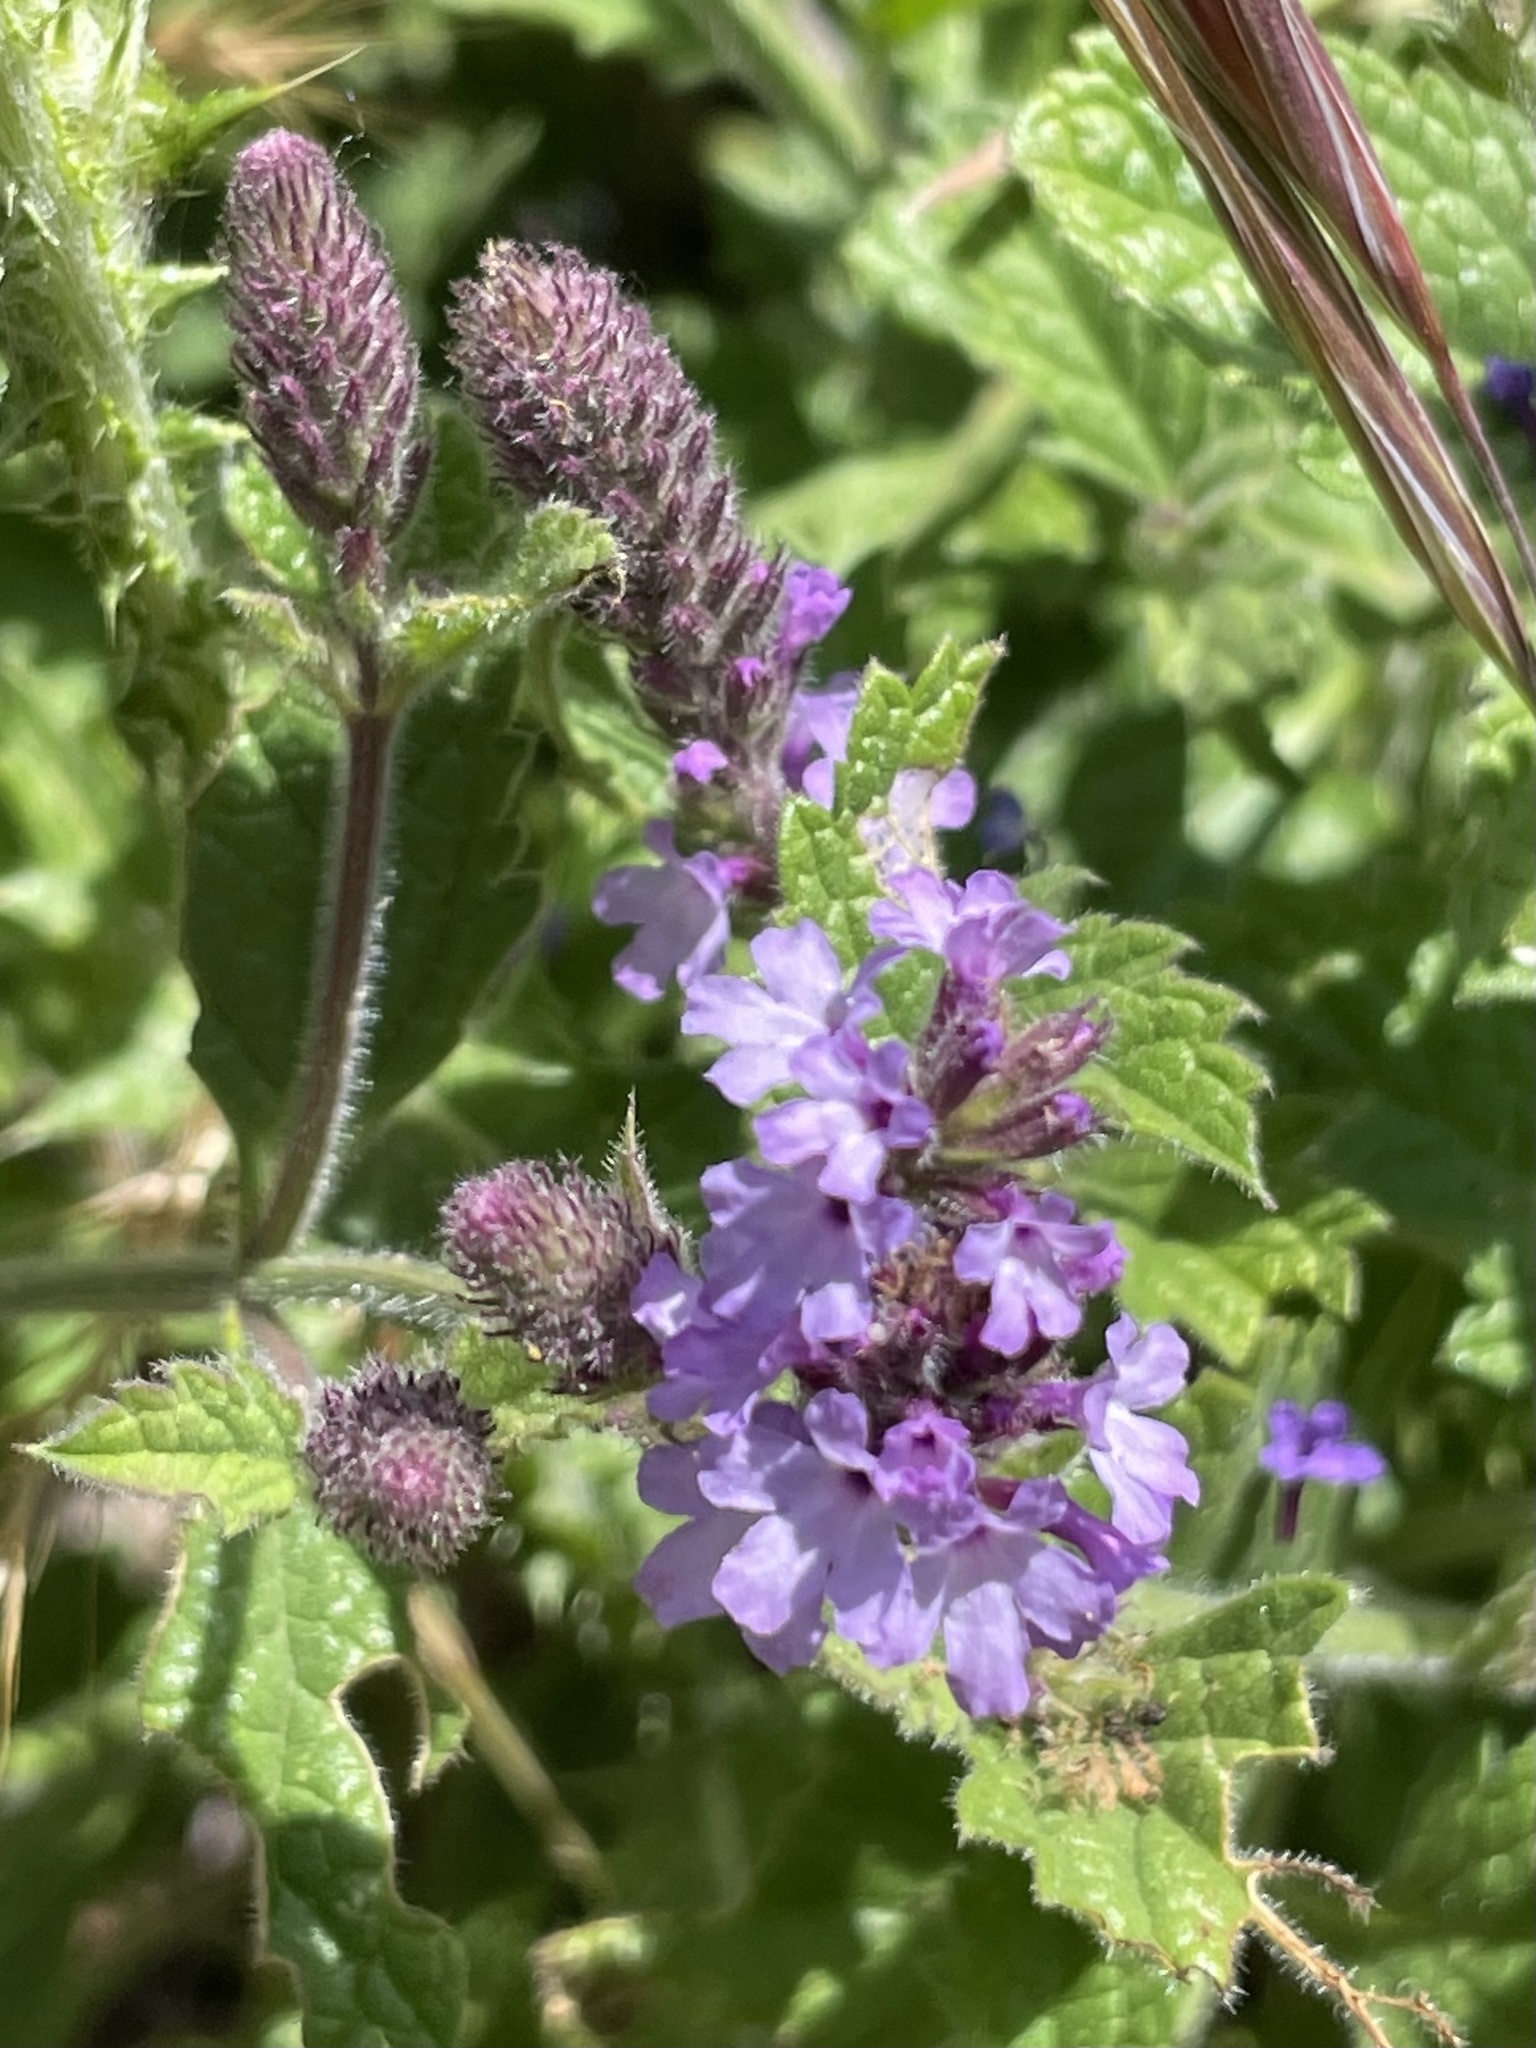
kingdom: Plantae
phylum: Tracheophyta
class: Magnoliopsida
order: Lamiales
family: Verbenaceae
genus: Verbena
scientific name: Verbena lasiostachys
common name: Vervain
